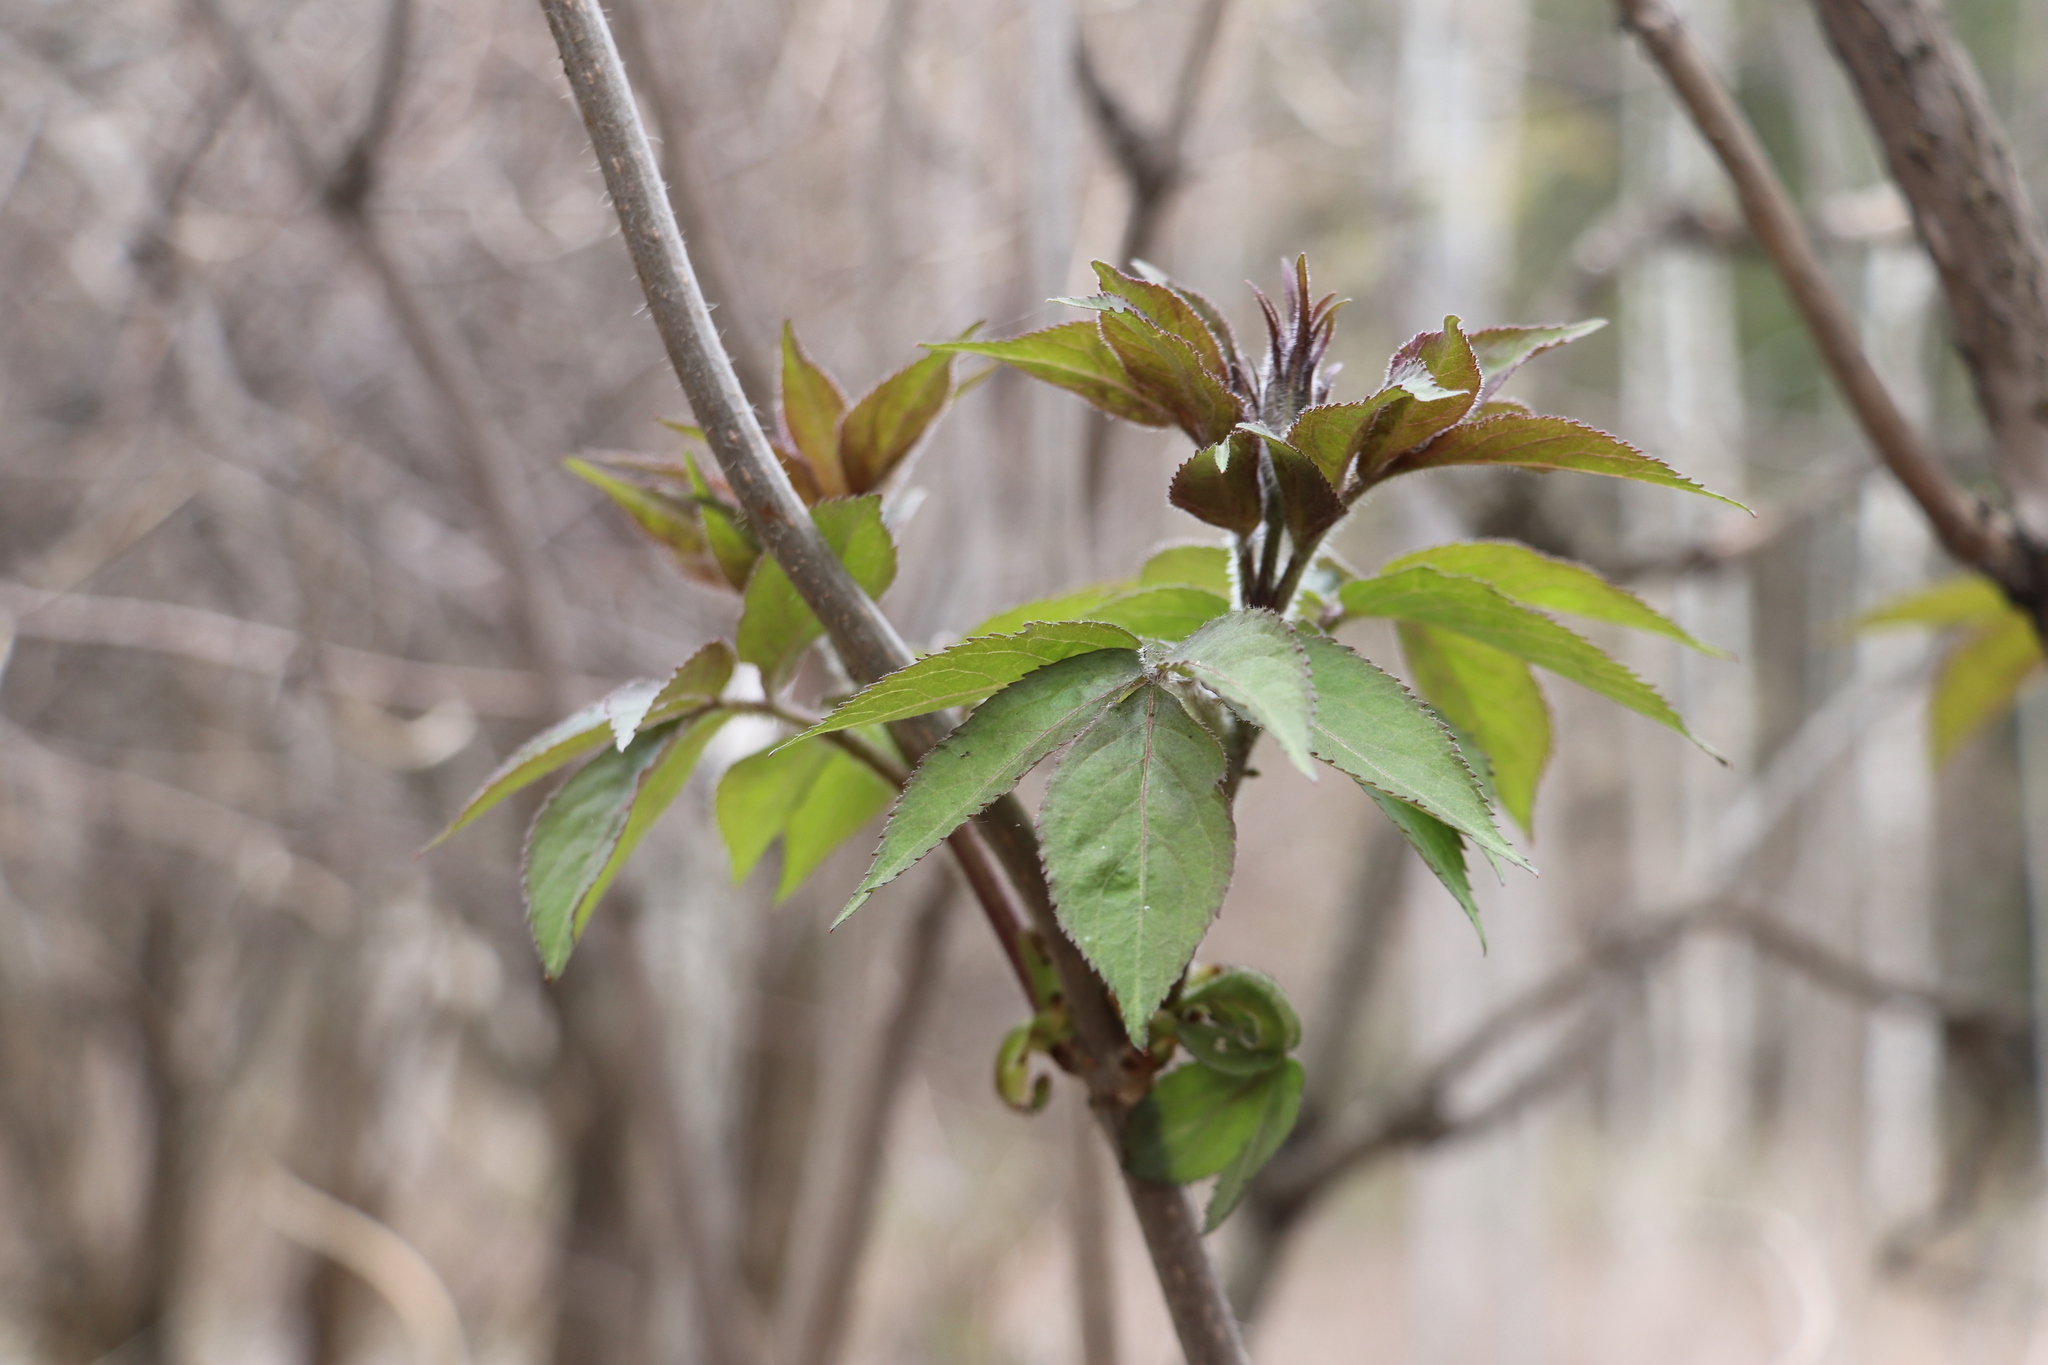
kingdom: Plantae
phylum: Tracheophyta
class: Magnoliopsida
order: Dipsacales
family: Viburnaceae
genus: Sambucus
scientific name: Sambucus sibirica
